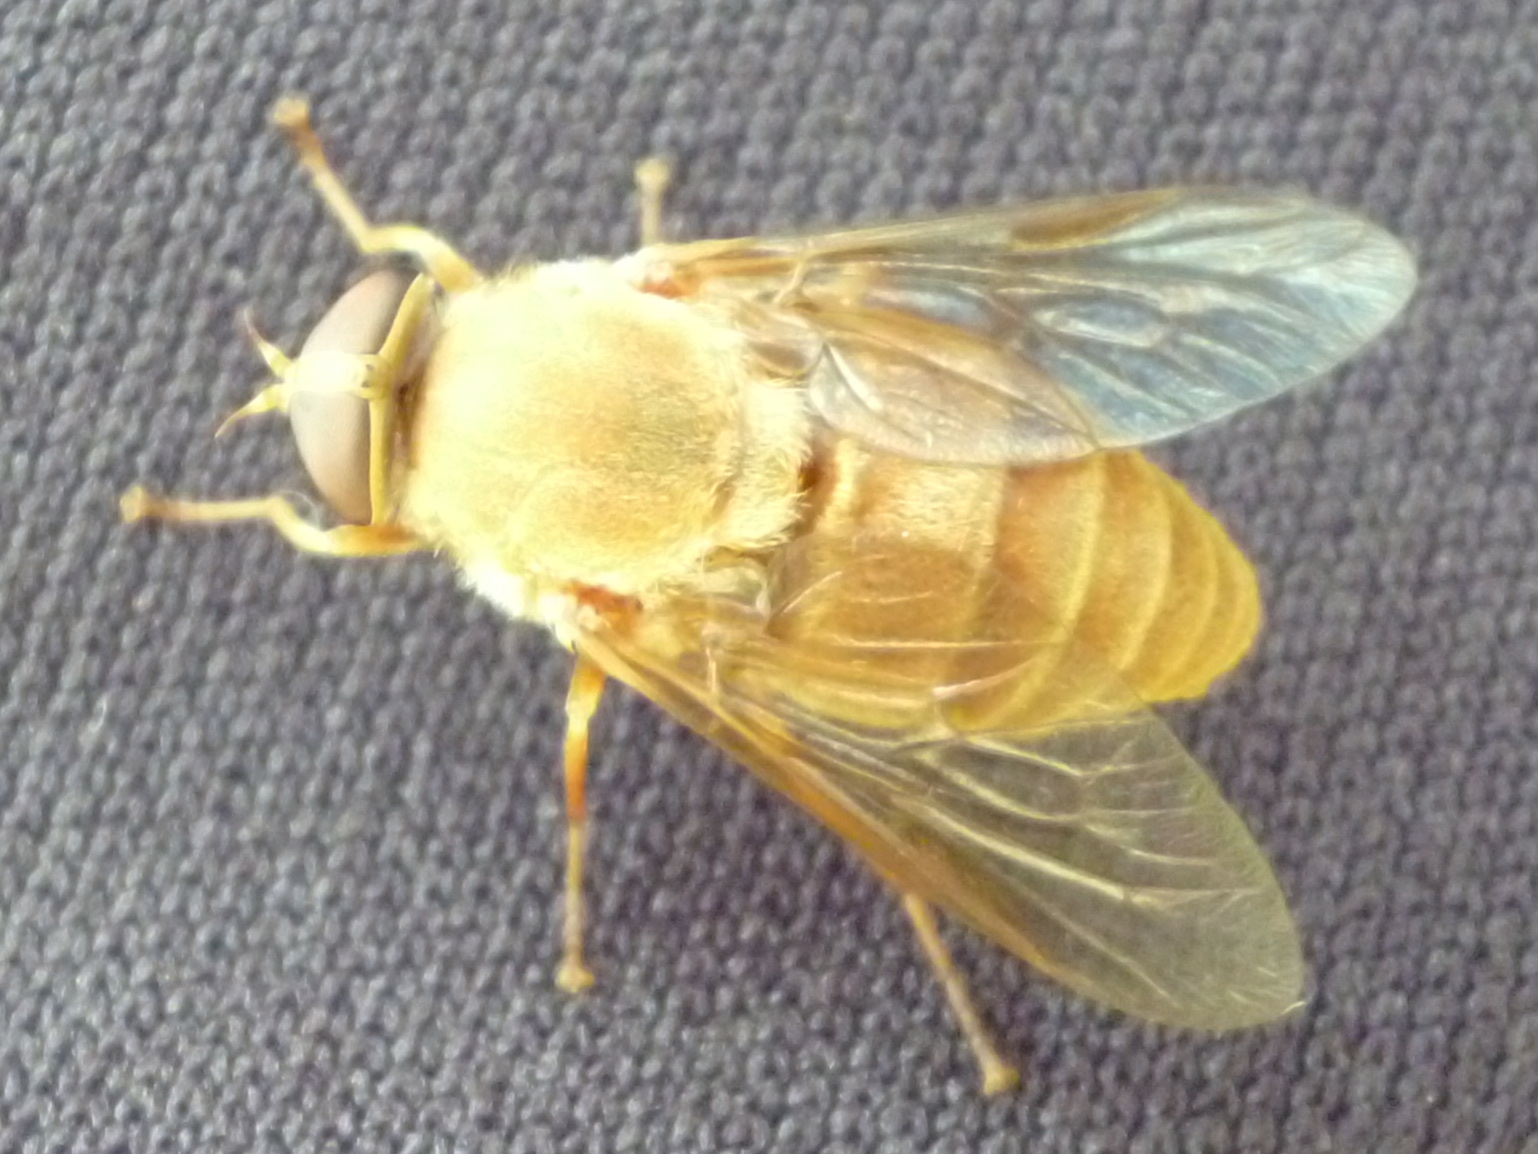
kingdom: Animalia
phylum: Arthropoda
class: Insecta
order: Diptera
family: Tabanidae
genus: Stonemyia
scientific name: Stonemyia isabellina
